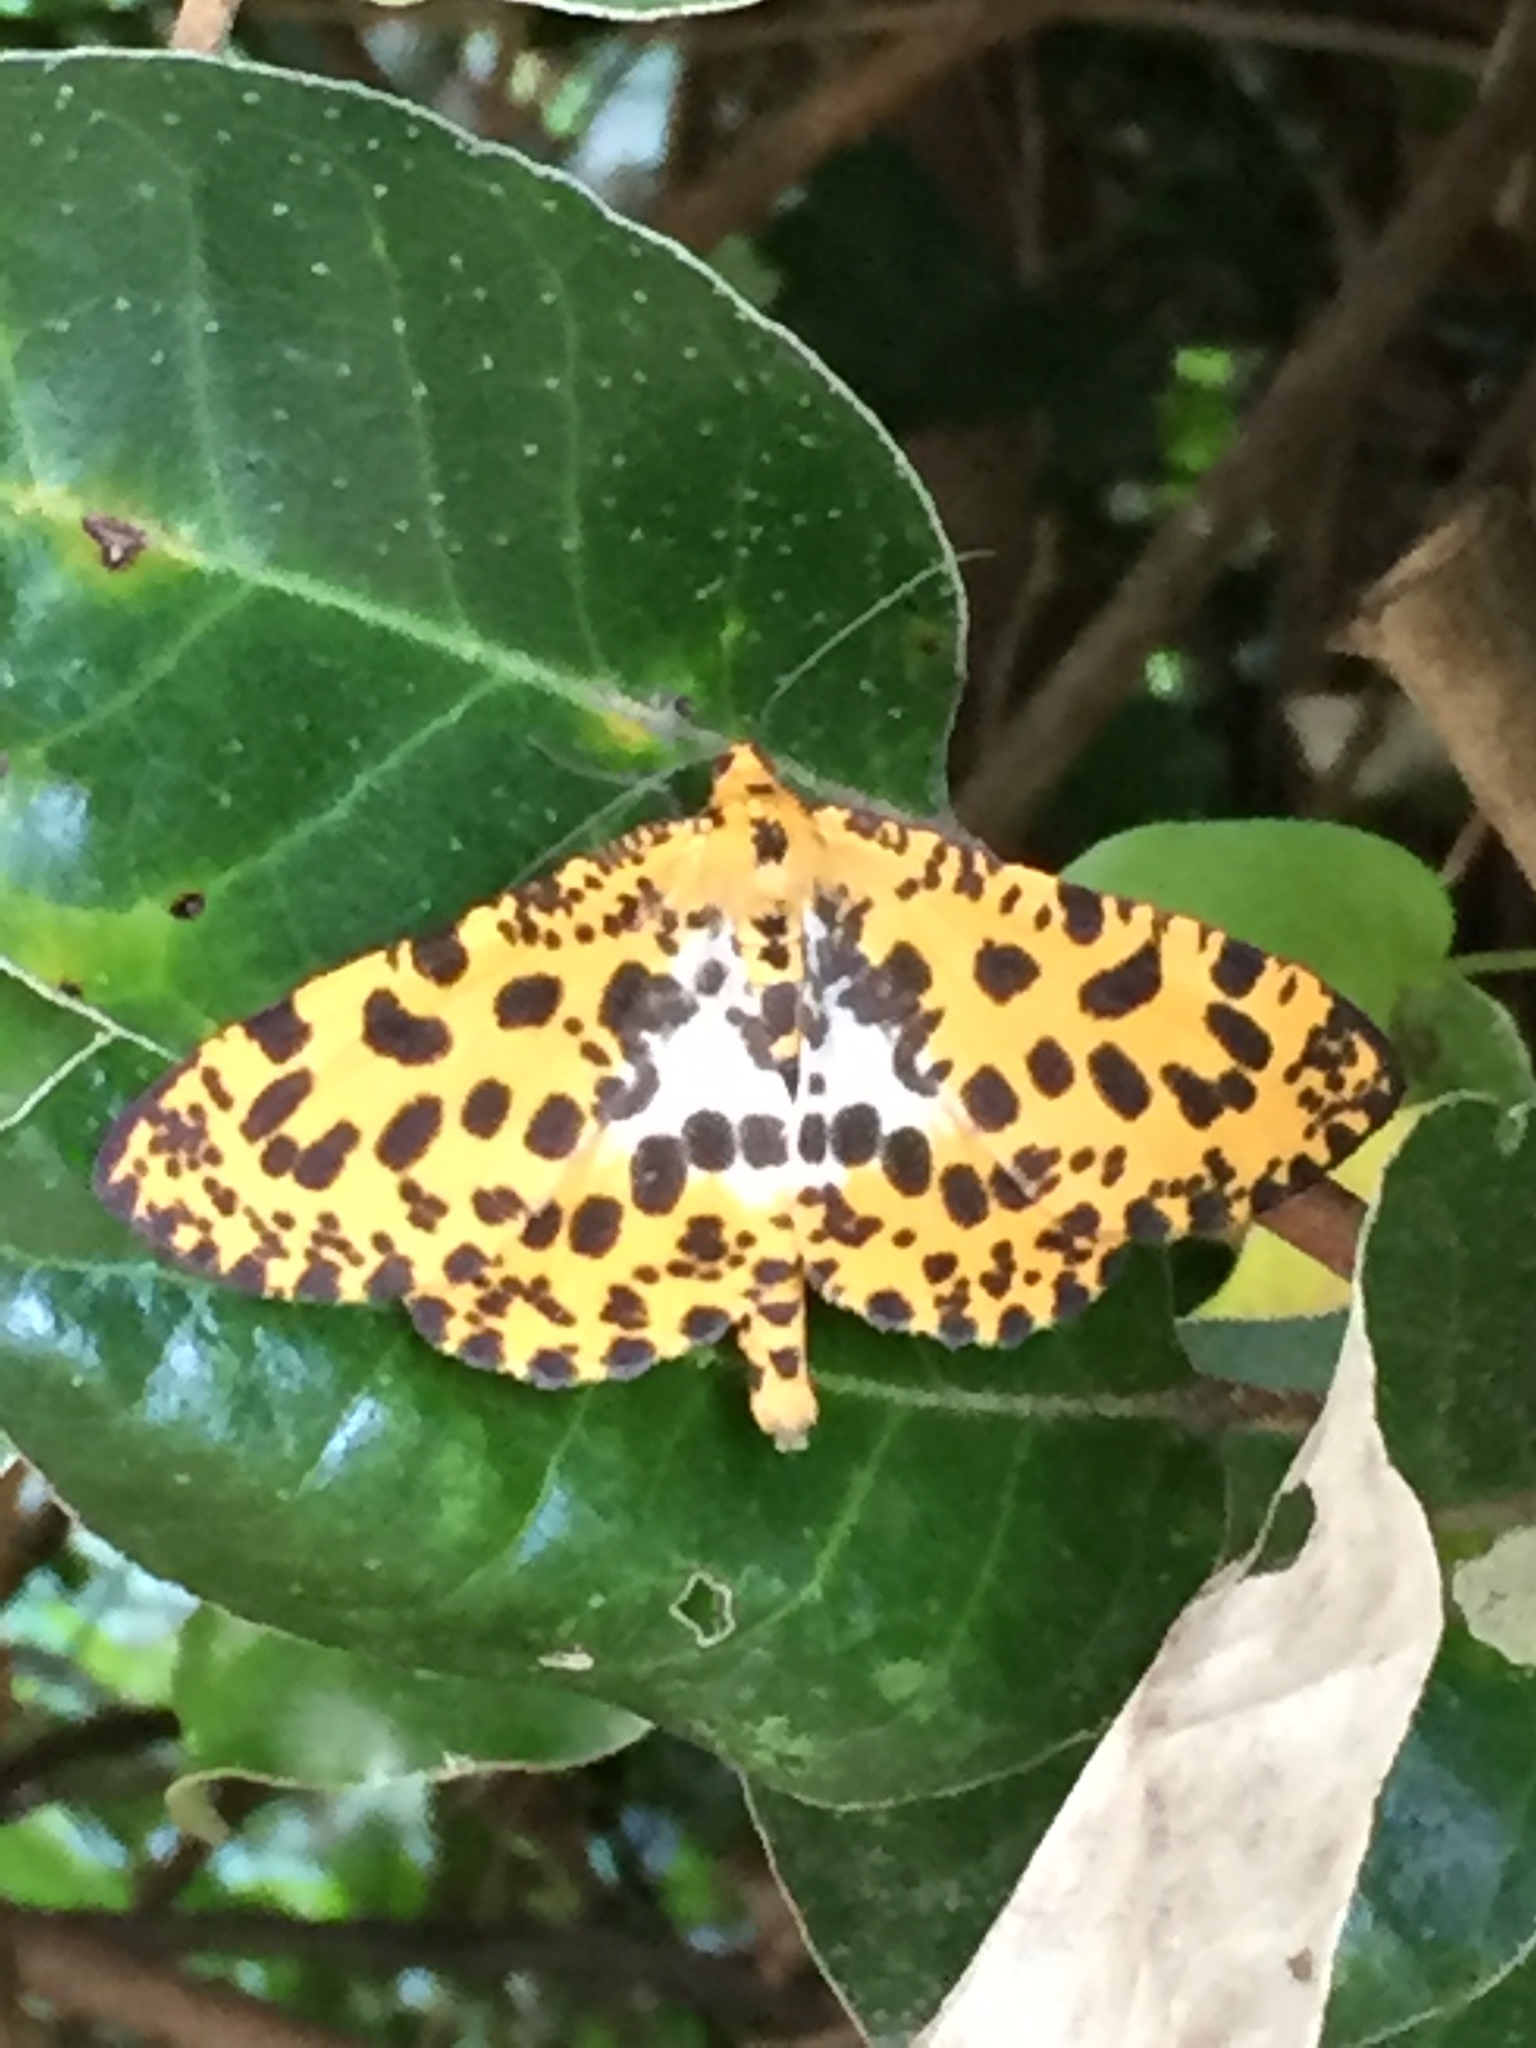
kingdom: Animalia
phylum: Arthropoda
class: Insecta
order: Lepidoptera
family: Geometridae
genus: Obeidia
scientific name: Obeidia Epobeidia tigrata
